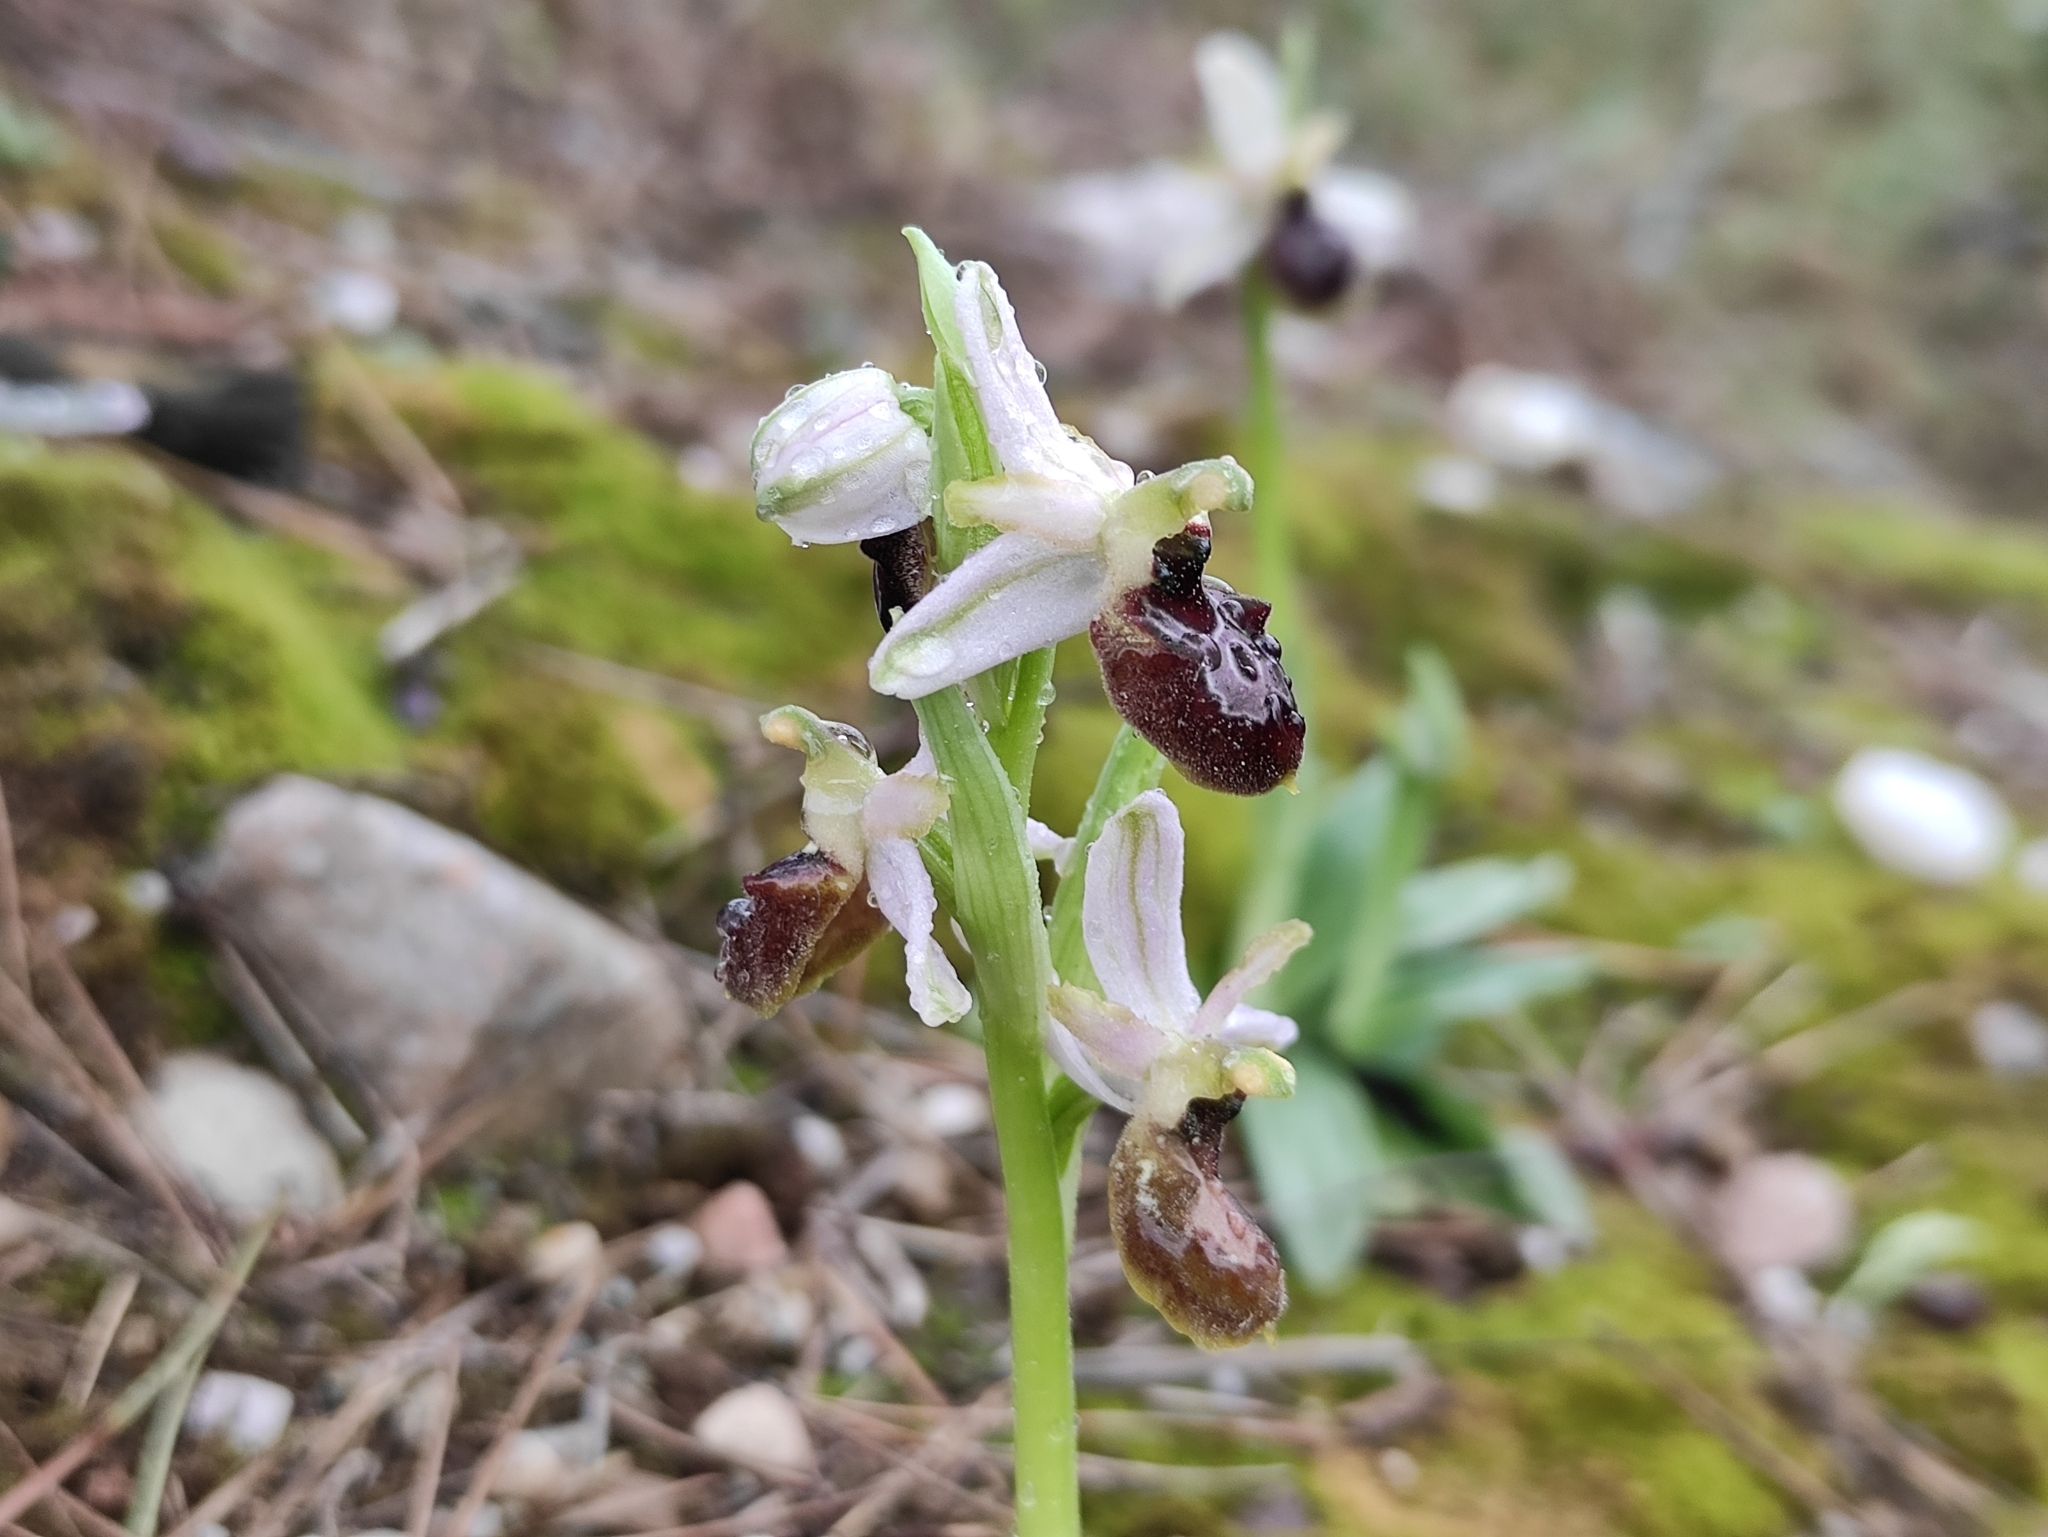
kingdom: Plantae
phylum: Tracheophyta
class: Liliopsida
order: Asparagales
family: Orchidaceae
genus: Ophrys
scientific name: Ophrys sphegodes
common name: Early spider-orchid
